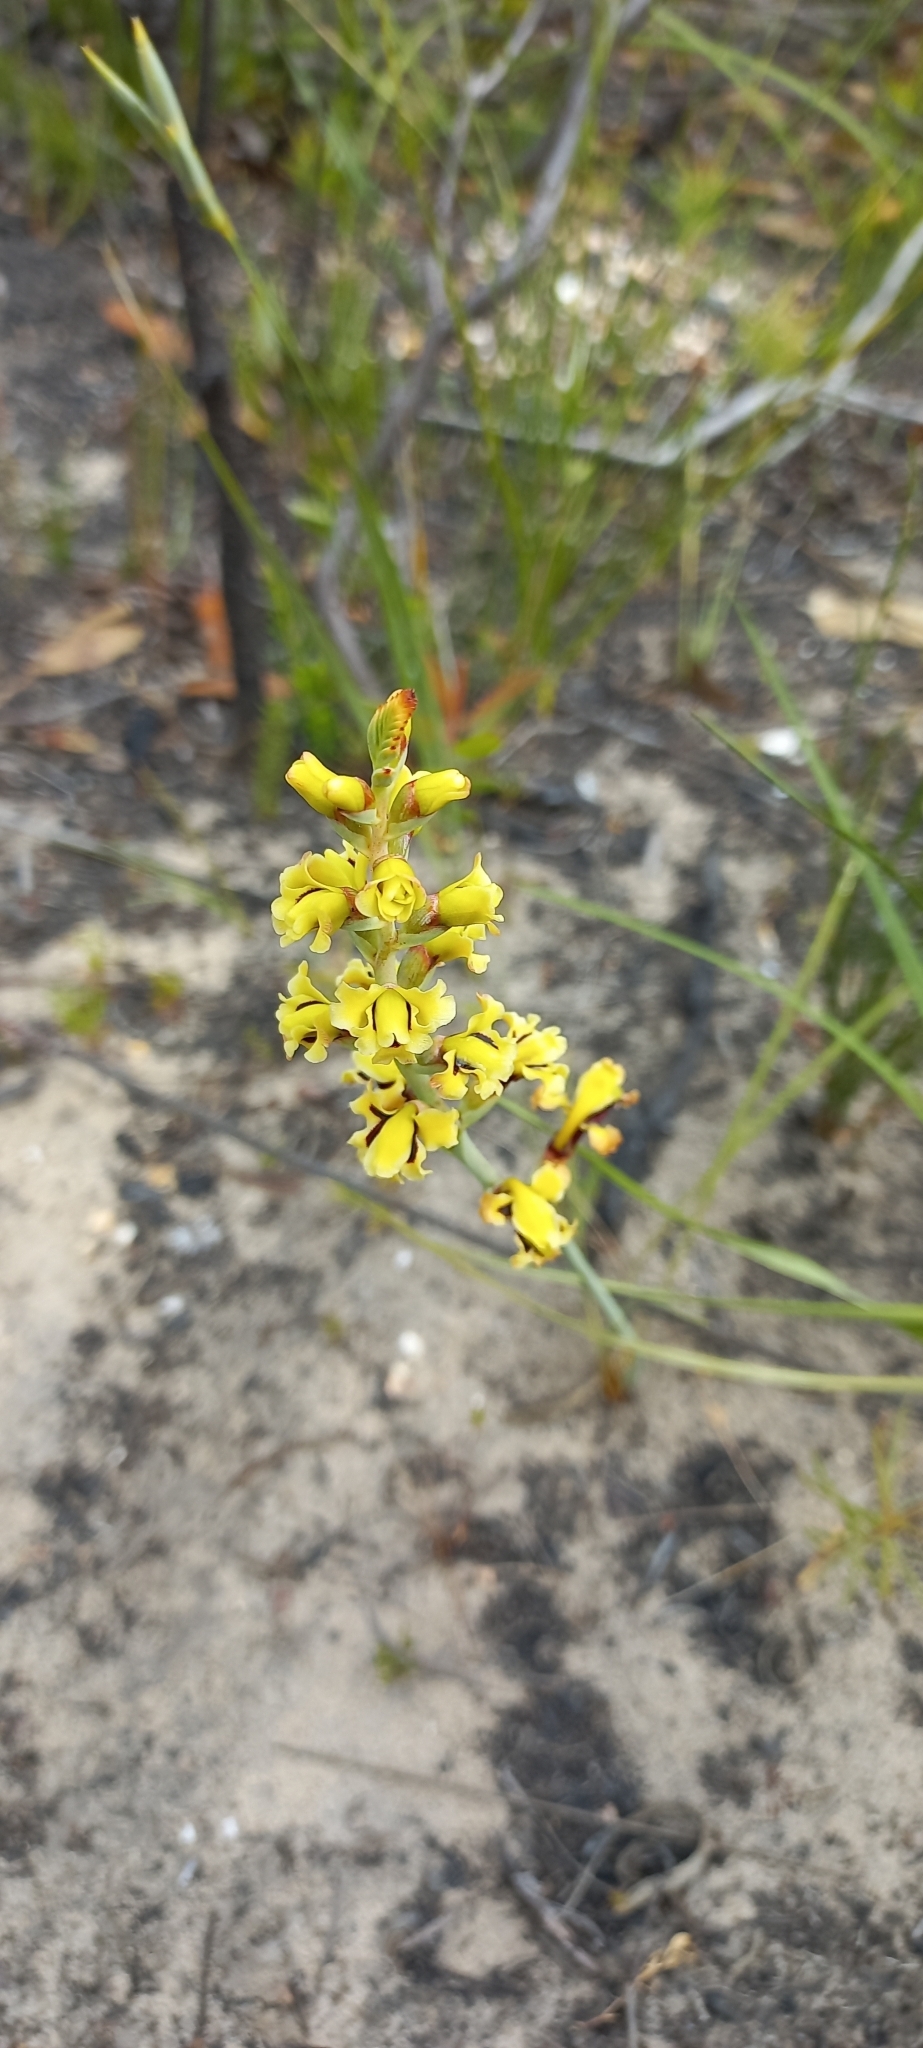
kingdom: Plantae
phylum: Tracheophyta
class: Liliopsida
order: Asparagales
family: Iridaceae
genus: Tritoniopsis
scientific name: Tritoniopsis parviflora
